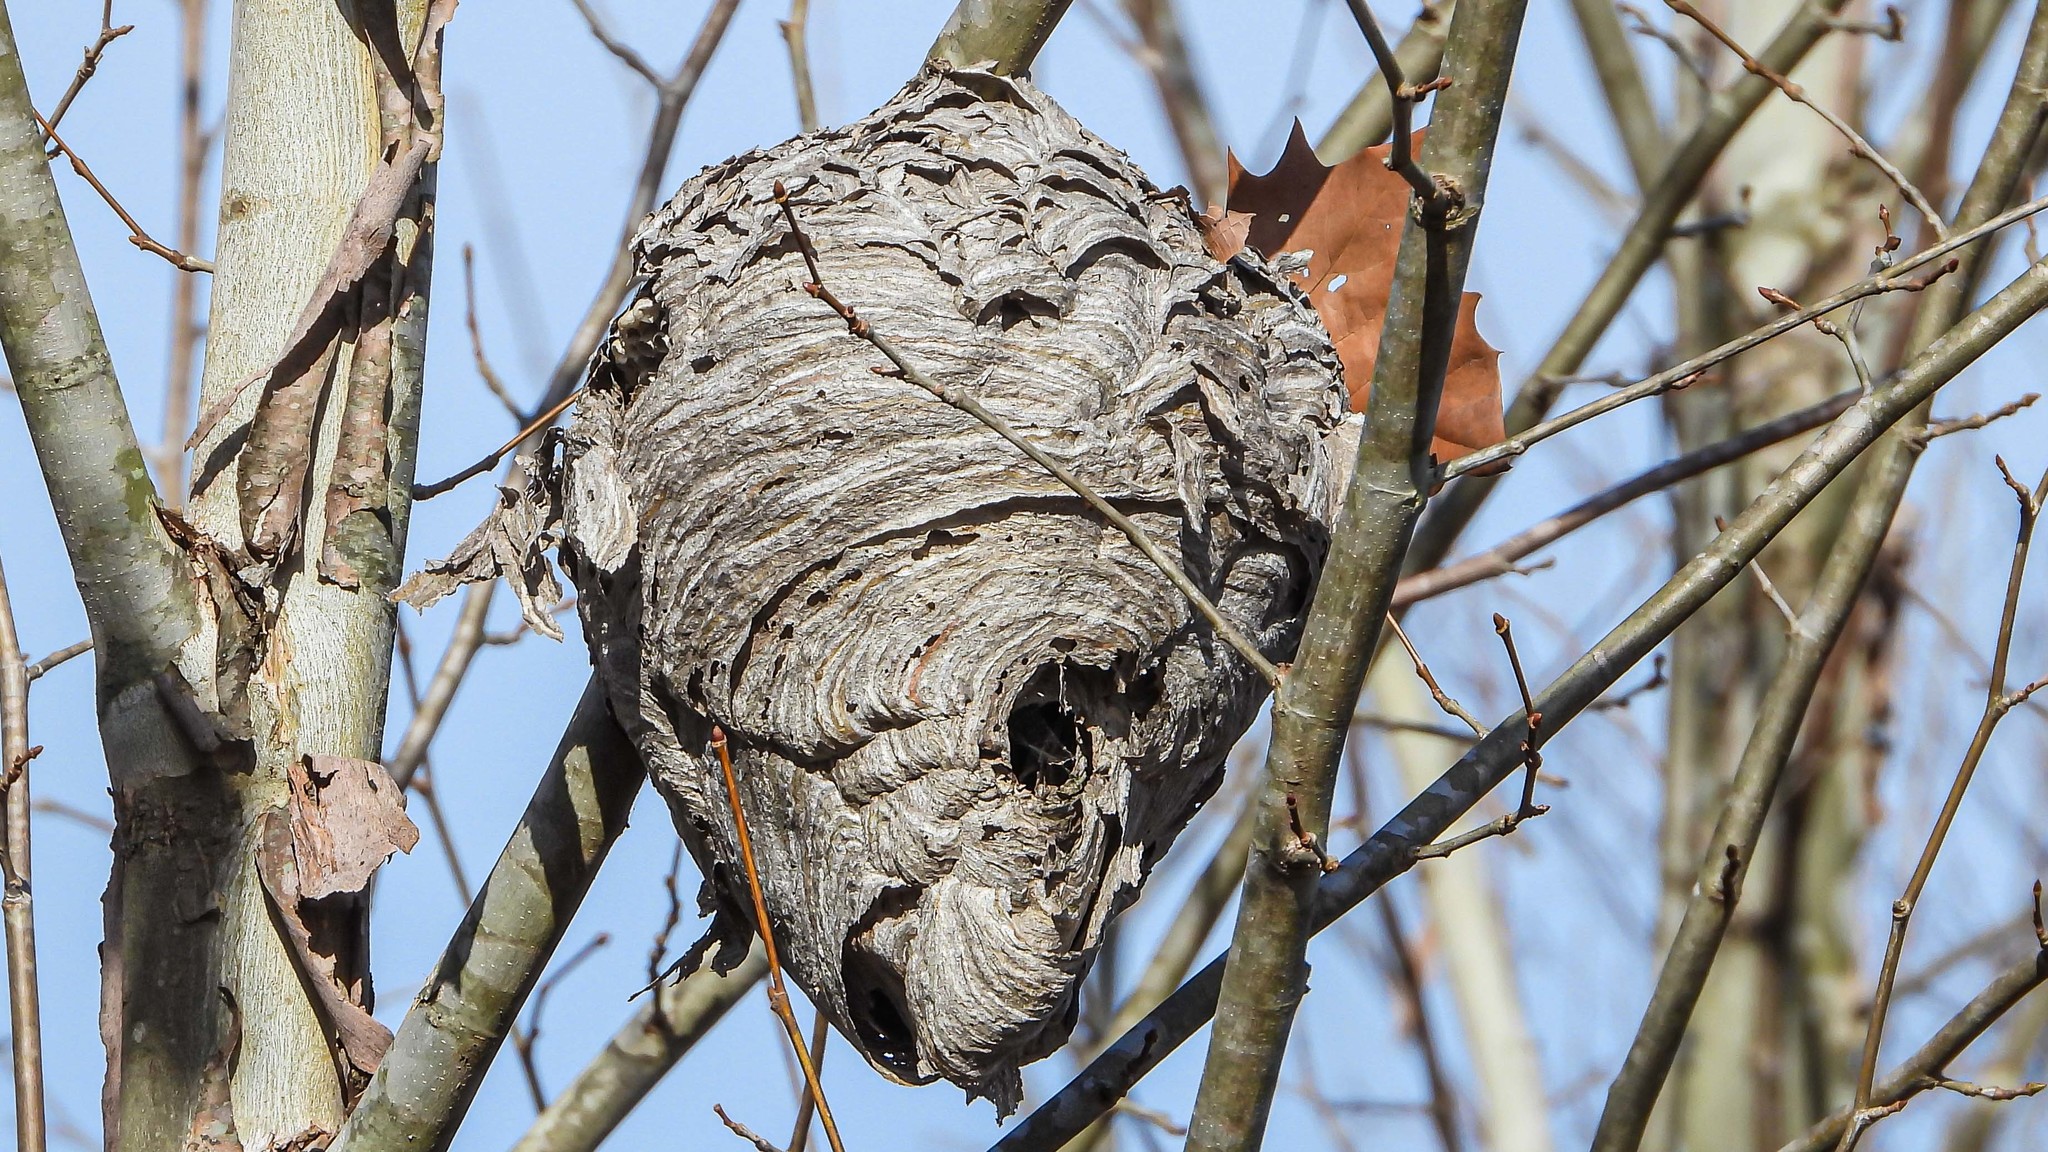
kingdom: Animalia
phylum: Arthropoda
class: Insecta
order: Hymenoptera
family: Vespidae
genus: Dolichovespula
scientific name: Dolichovespula maculata
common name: Bald-faced hornet
